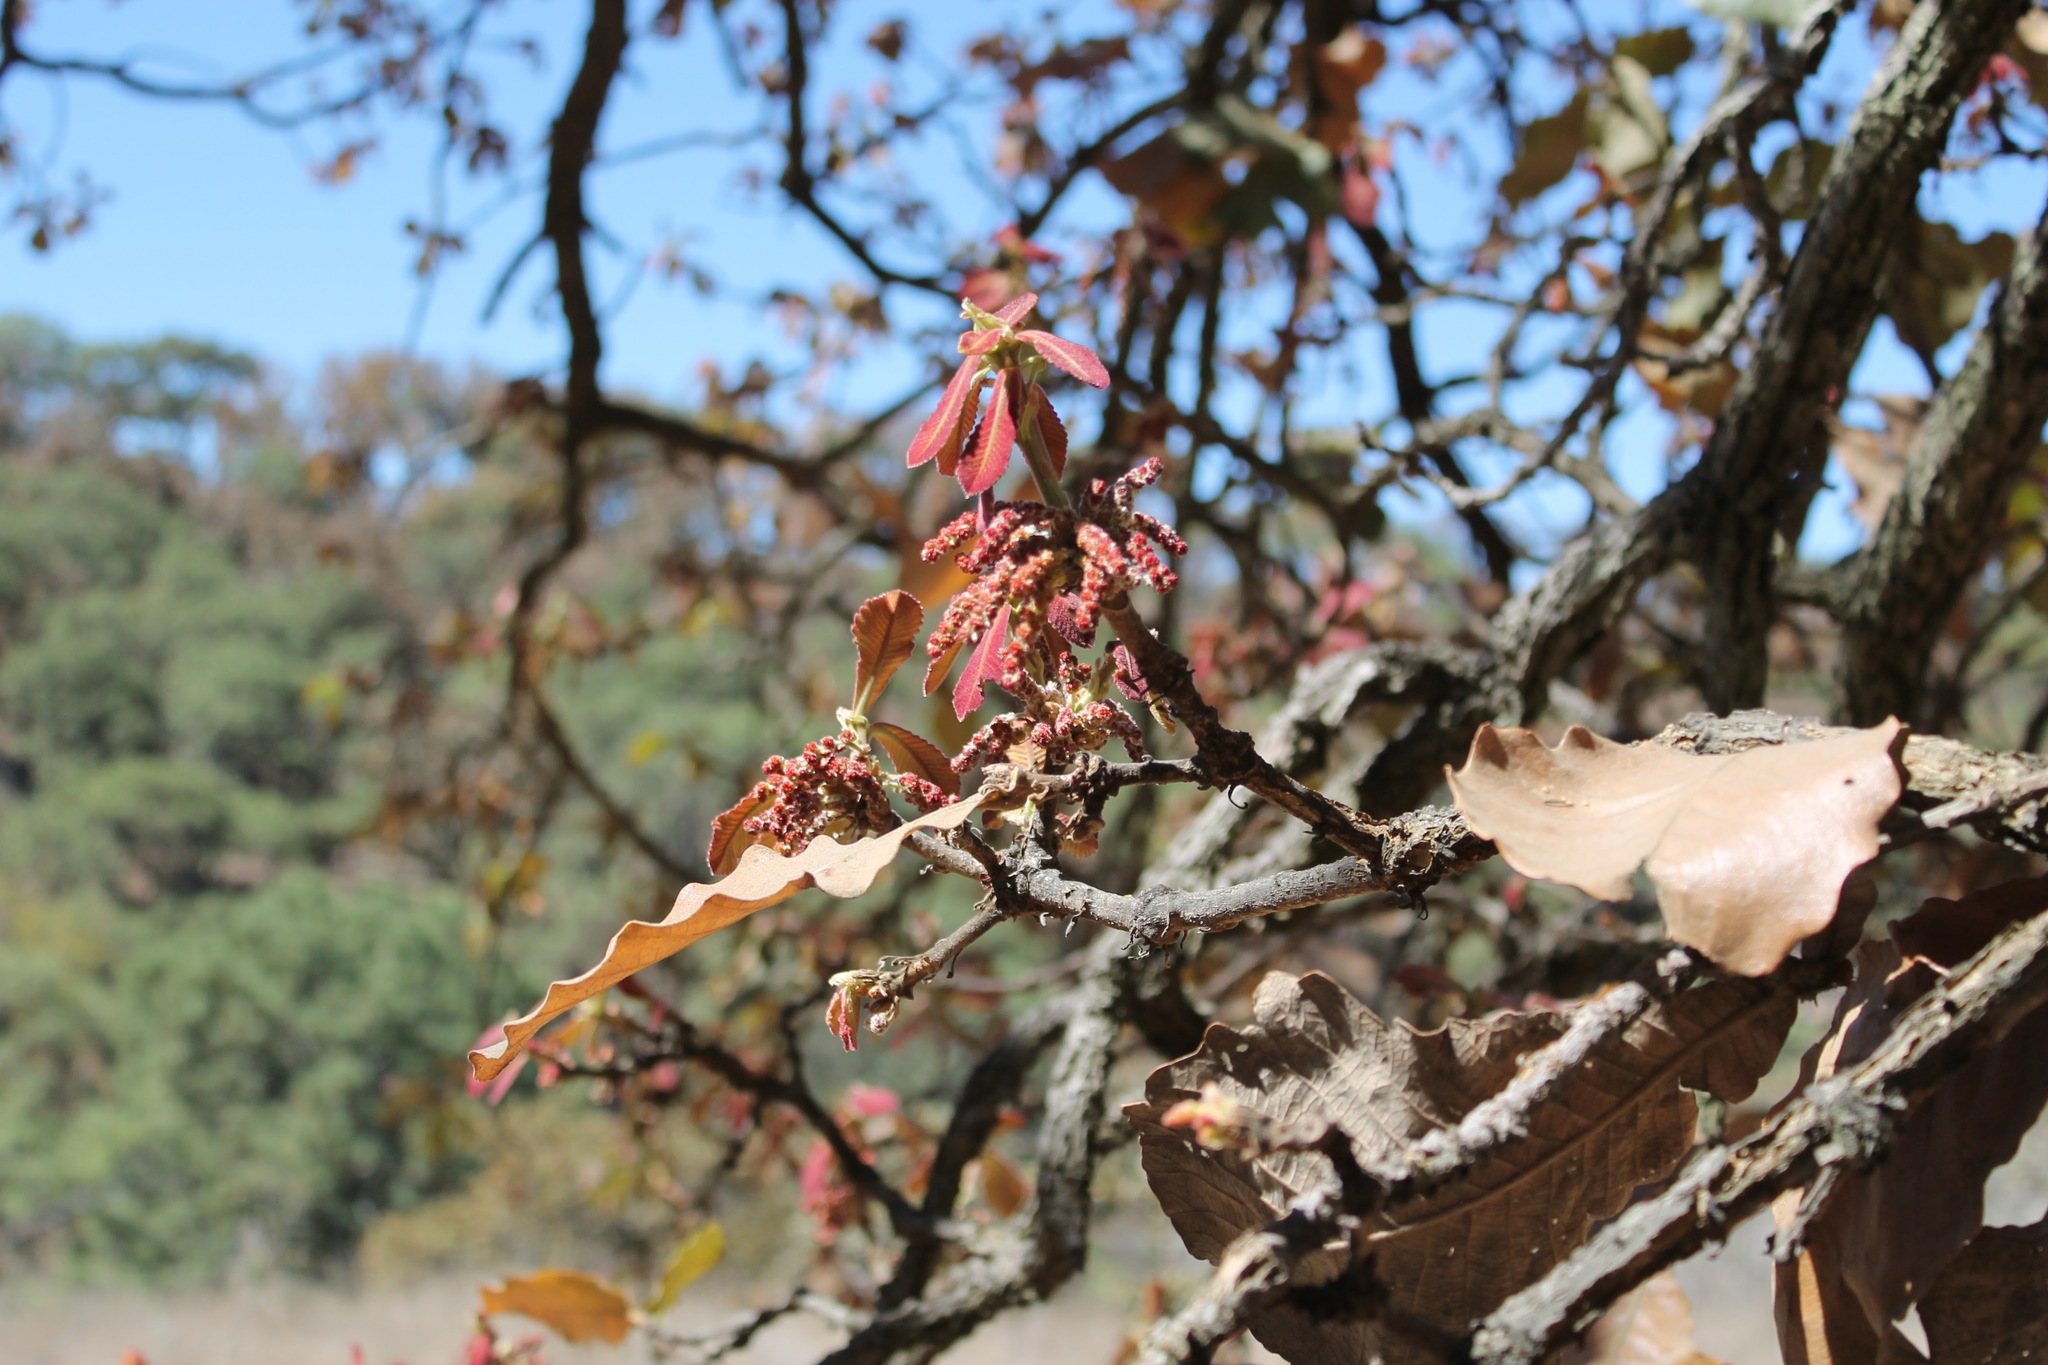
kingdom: Plantae
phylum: Tracheophyta
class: Magnoliopsida
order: Fagales
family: Fagaceae
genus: Quercus
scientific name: Quercus resinosa
